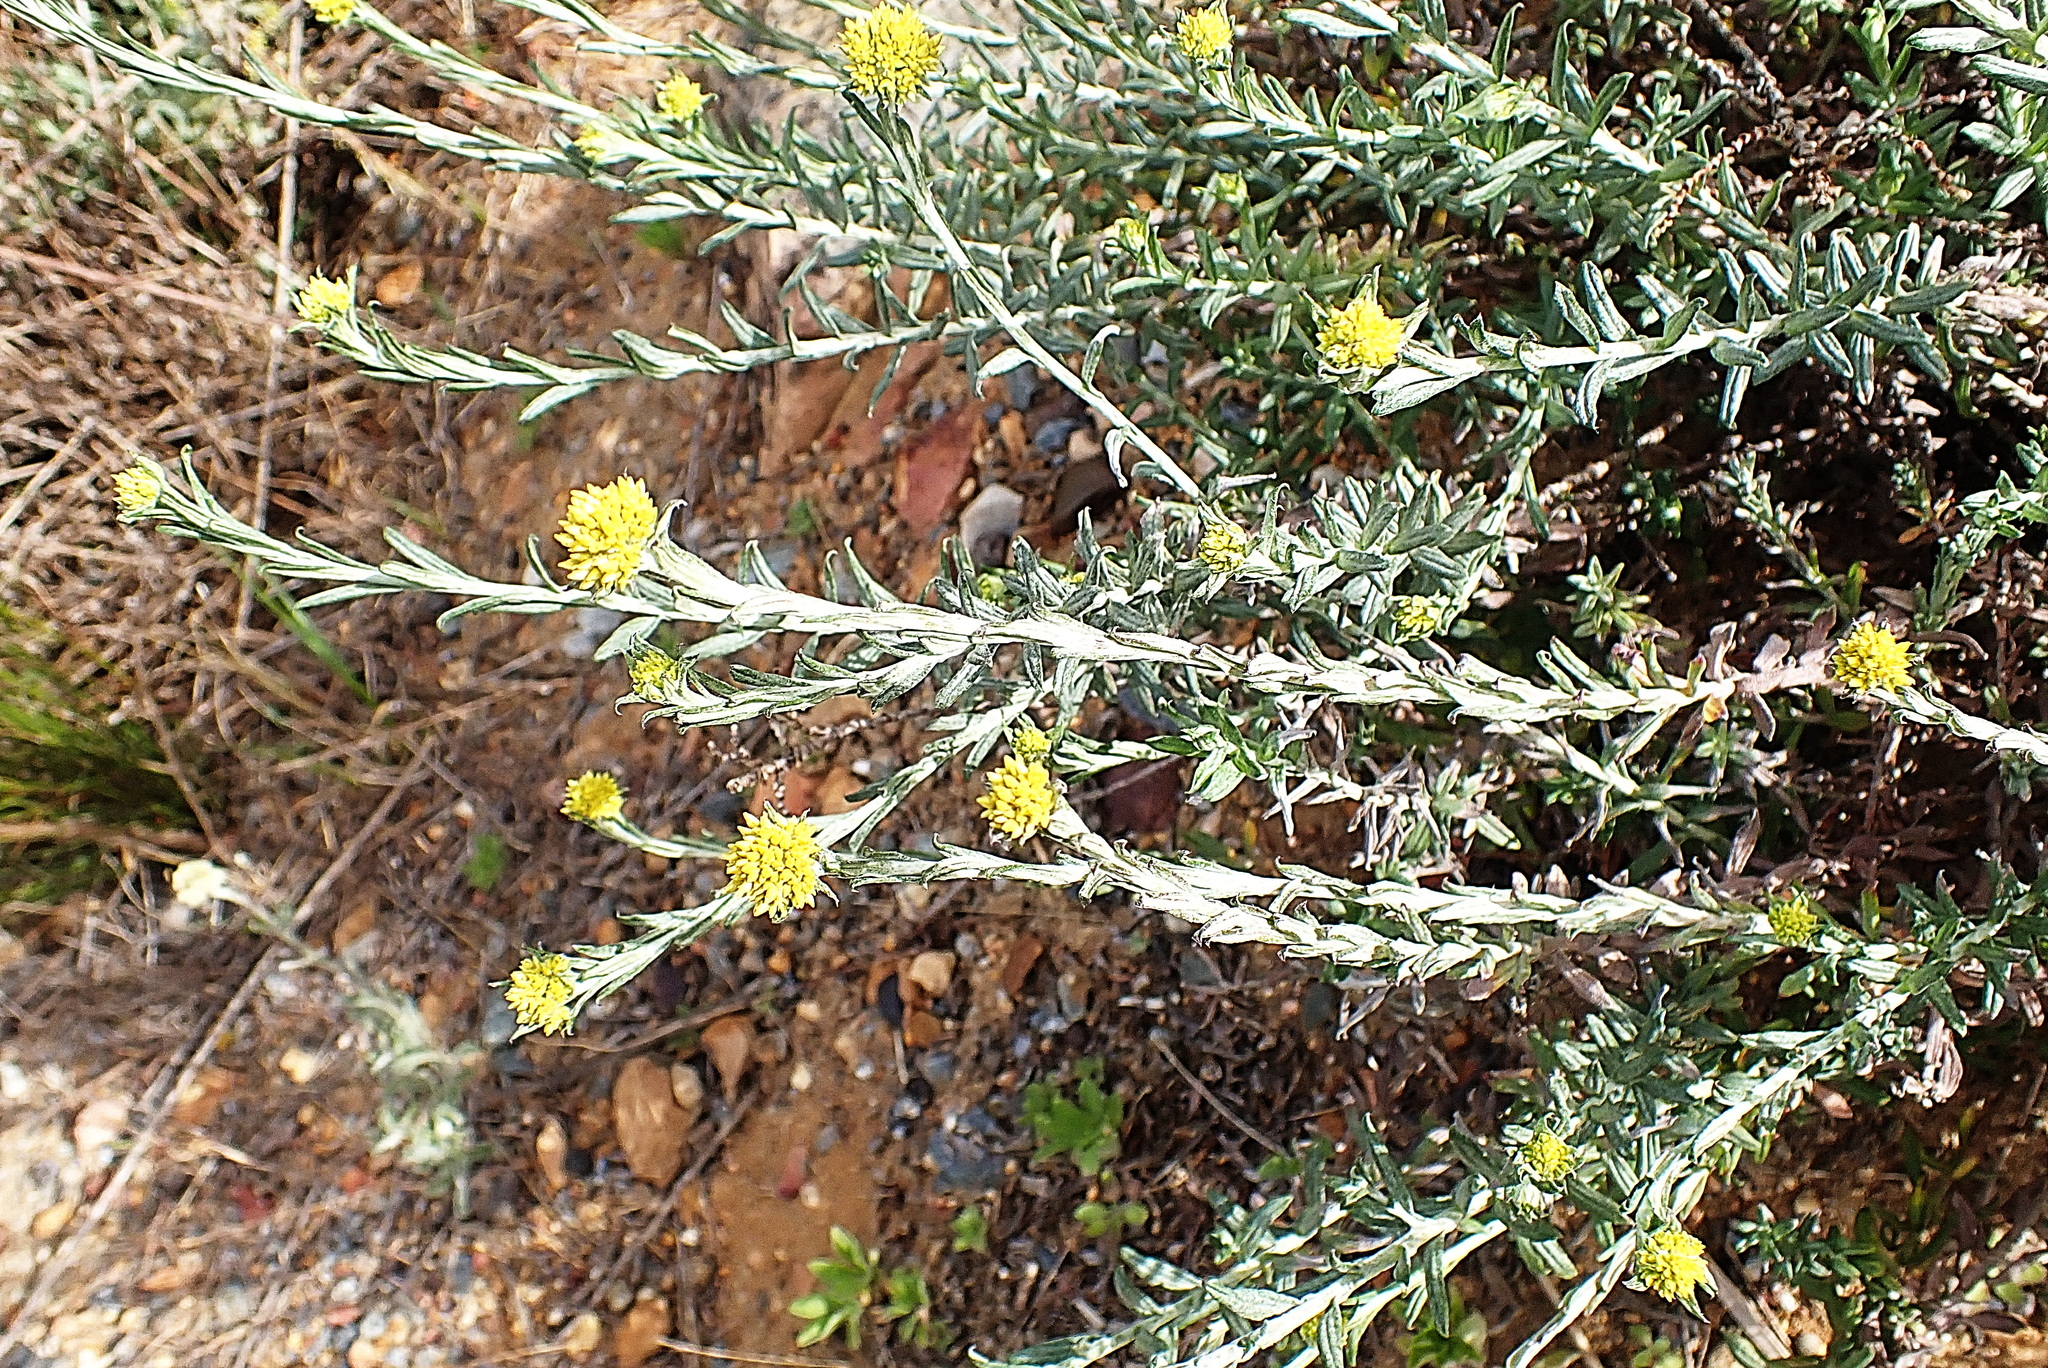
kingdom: Plantae
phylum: Tracheophyta
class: Magnoliopsida
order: Asterales
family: Asteraceae
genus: Helichrysum
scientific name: Helichrysum cymosum
